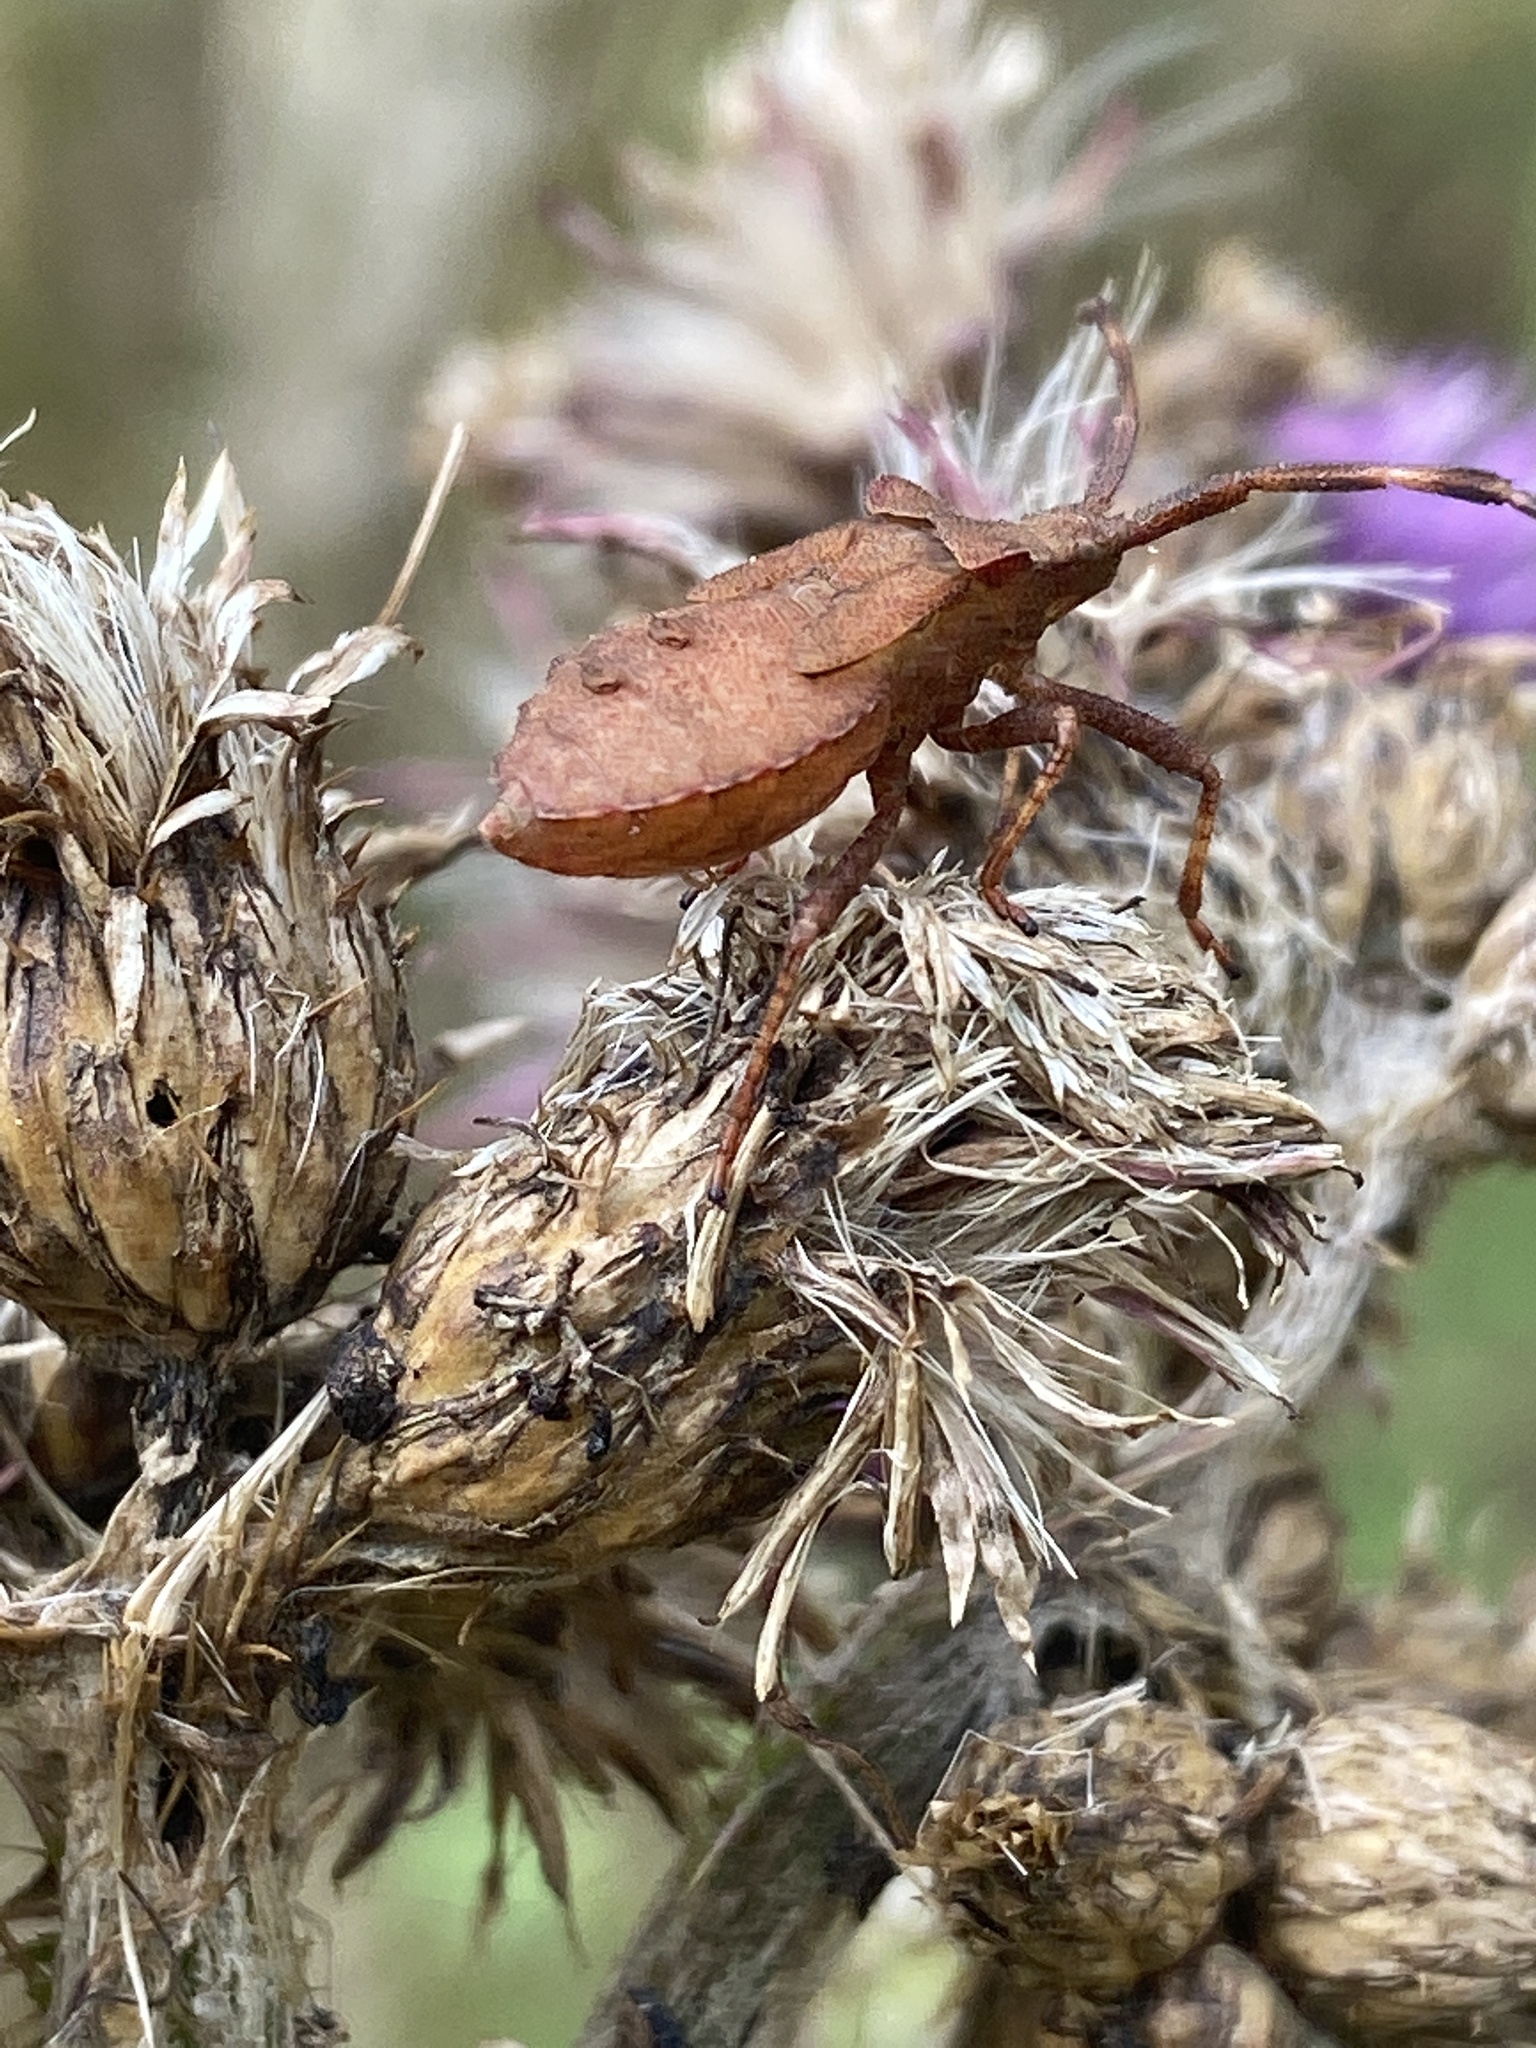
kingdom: Animalia
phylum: Arthropoda
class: Insecta
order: Hemiptera
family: Coreidae
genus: Coreus
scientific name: Coreus marginatus
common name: Dock bug
